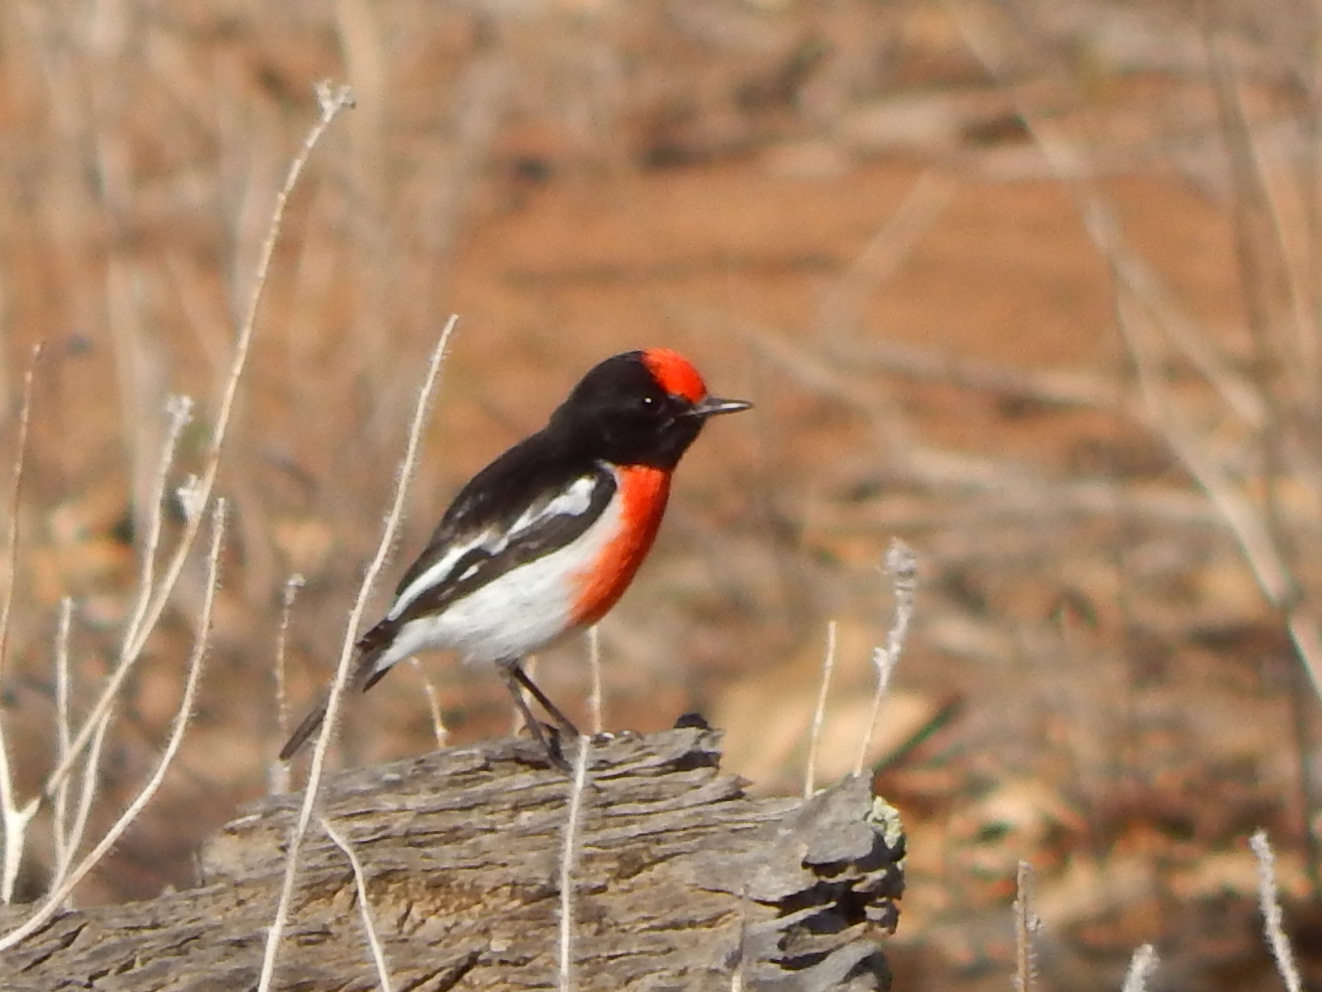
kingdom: Animalia
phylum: Chordata
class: Aves
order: Passeriformes
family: Petroicidae
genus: Petroica
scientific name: Petroica goodenovii
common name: Red-capped robin
